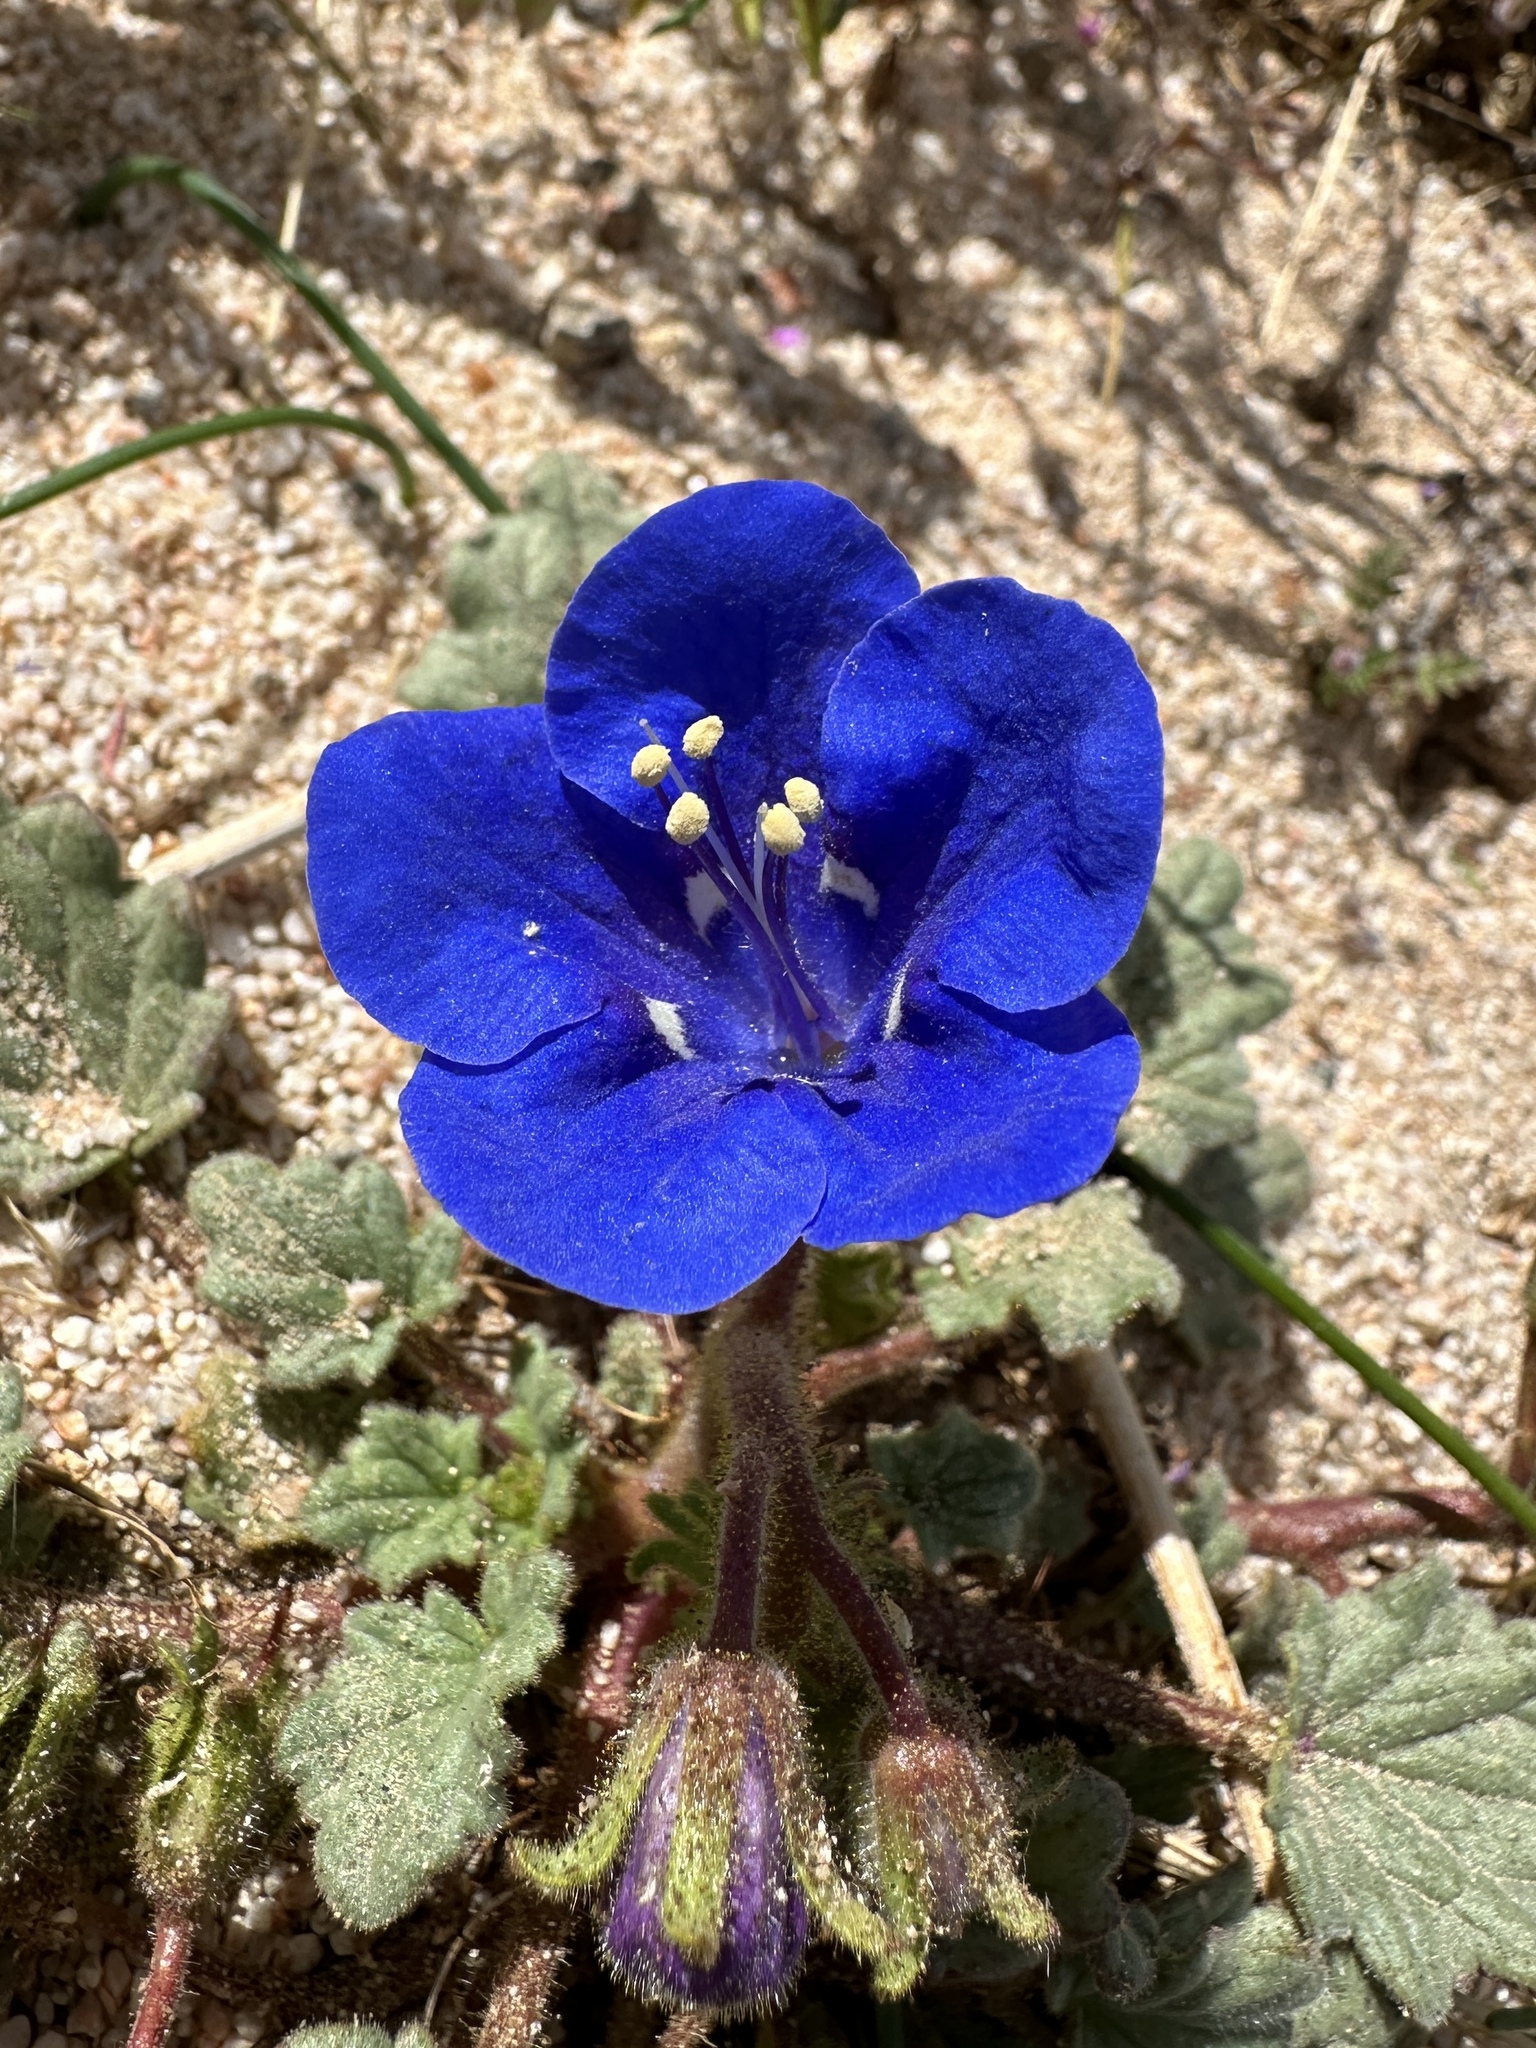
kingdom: Plantae
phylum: Tracheophyta
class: Magnoliopsida
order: Boraginales
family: Hydrophyllaceae
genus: Phacelia
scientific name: Phacelia nashiana
